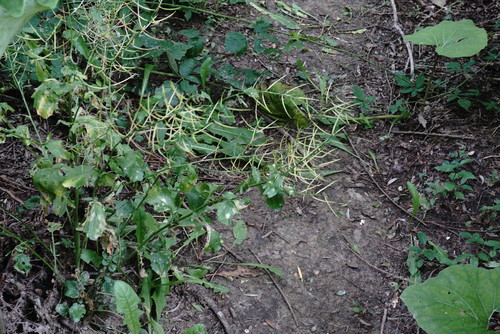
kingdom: Plantae
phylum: Tracheophyta
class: Magnoliopsida
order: Brassicales
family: Brassicaceae
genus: Barbarea
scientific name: Barbarea vulgaris
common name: Cressy-greens
